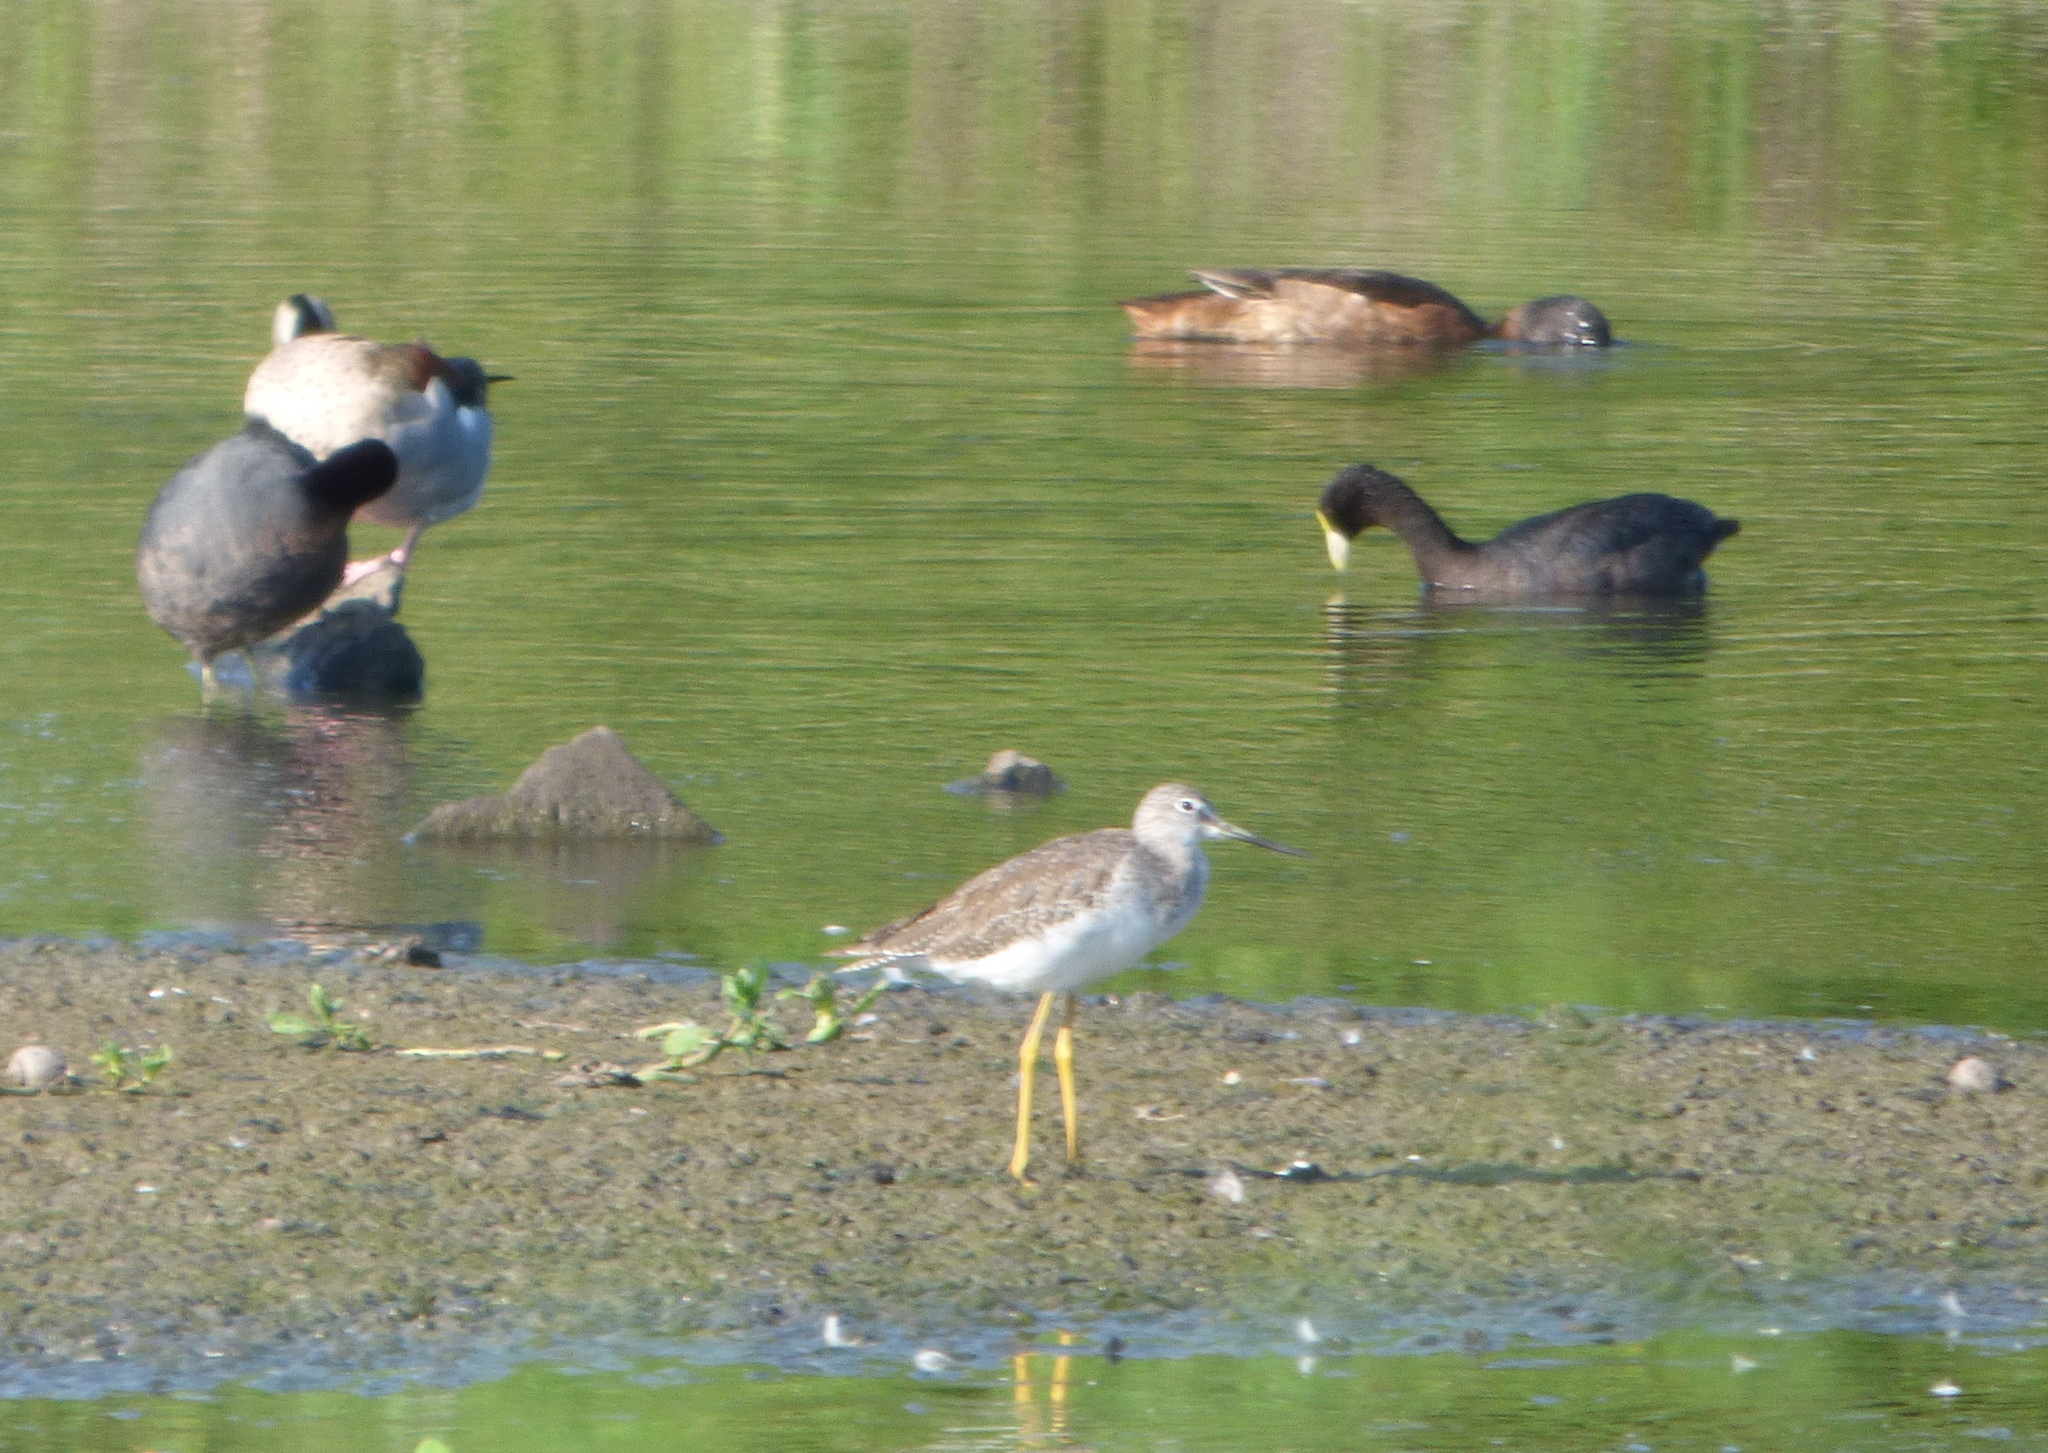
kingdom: Animalia
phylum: Chordata
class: Aves
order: Charadriiformes
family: Scolopacidae
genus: Tringa
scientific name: Tringa melanoleuca
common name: Greater yellowlegs
